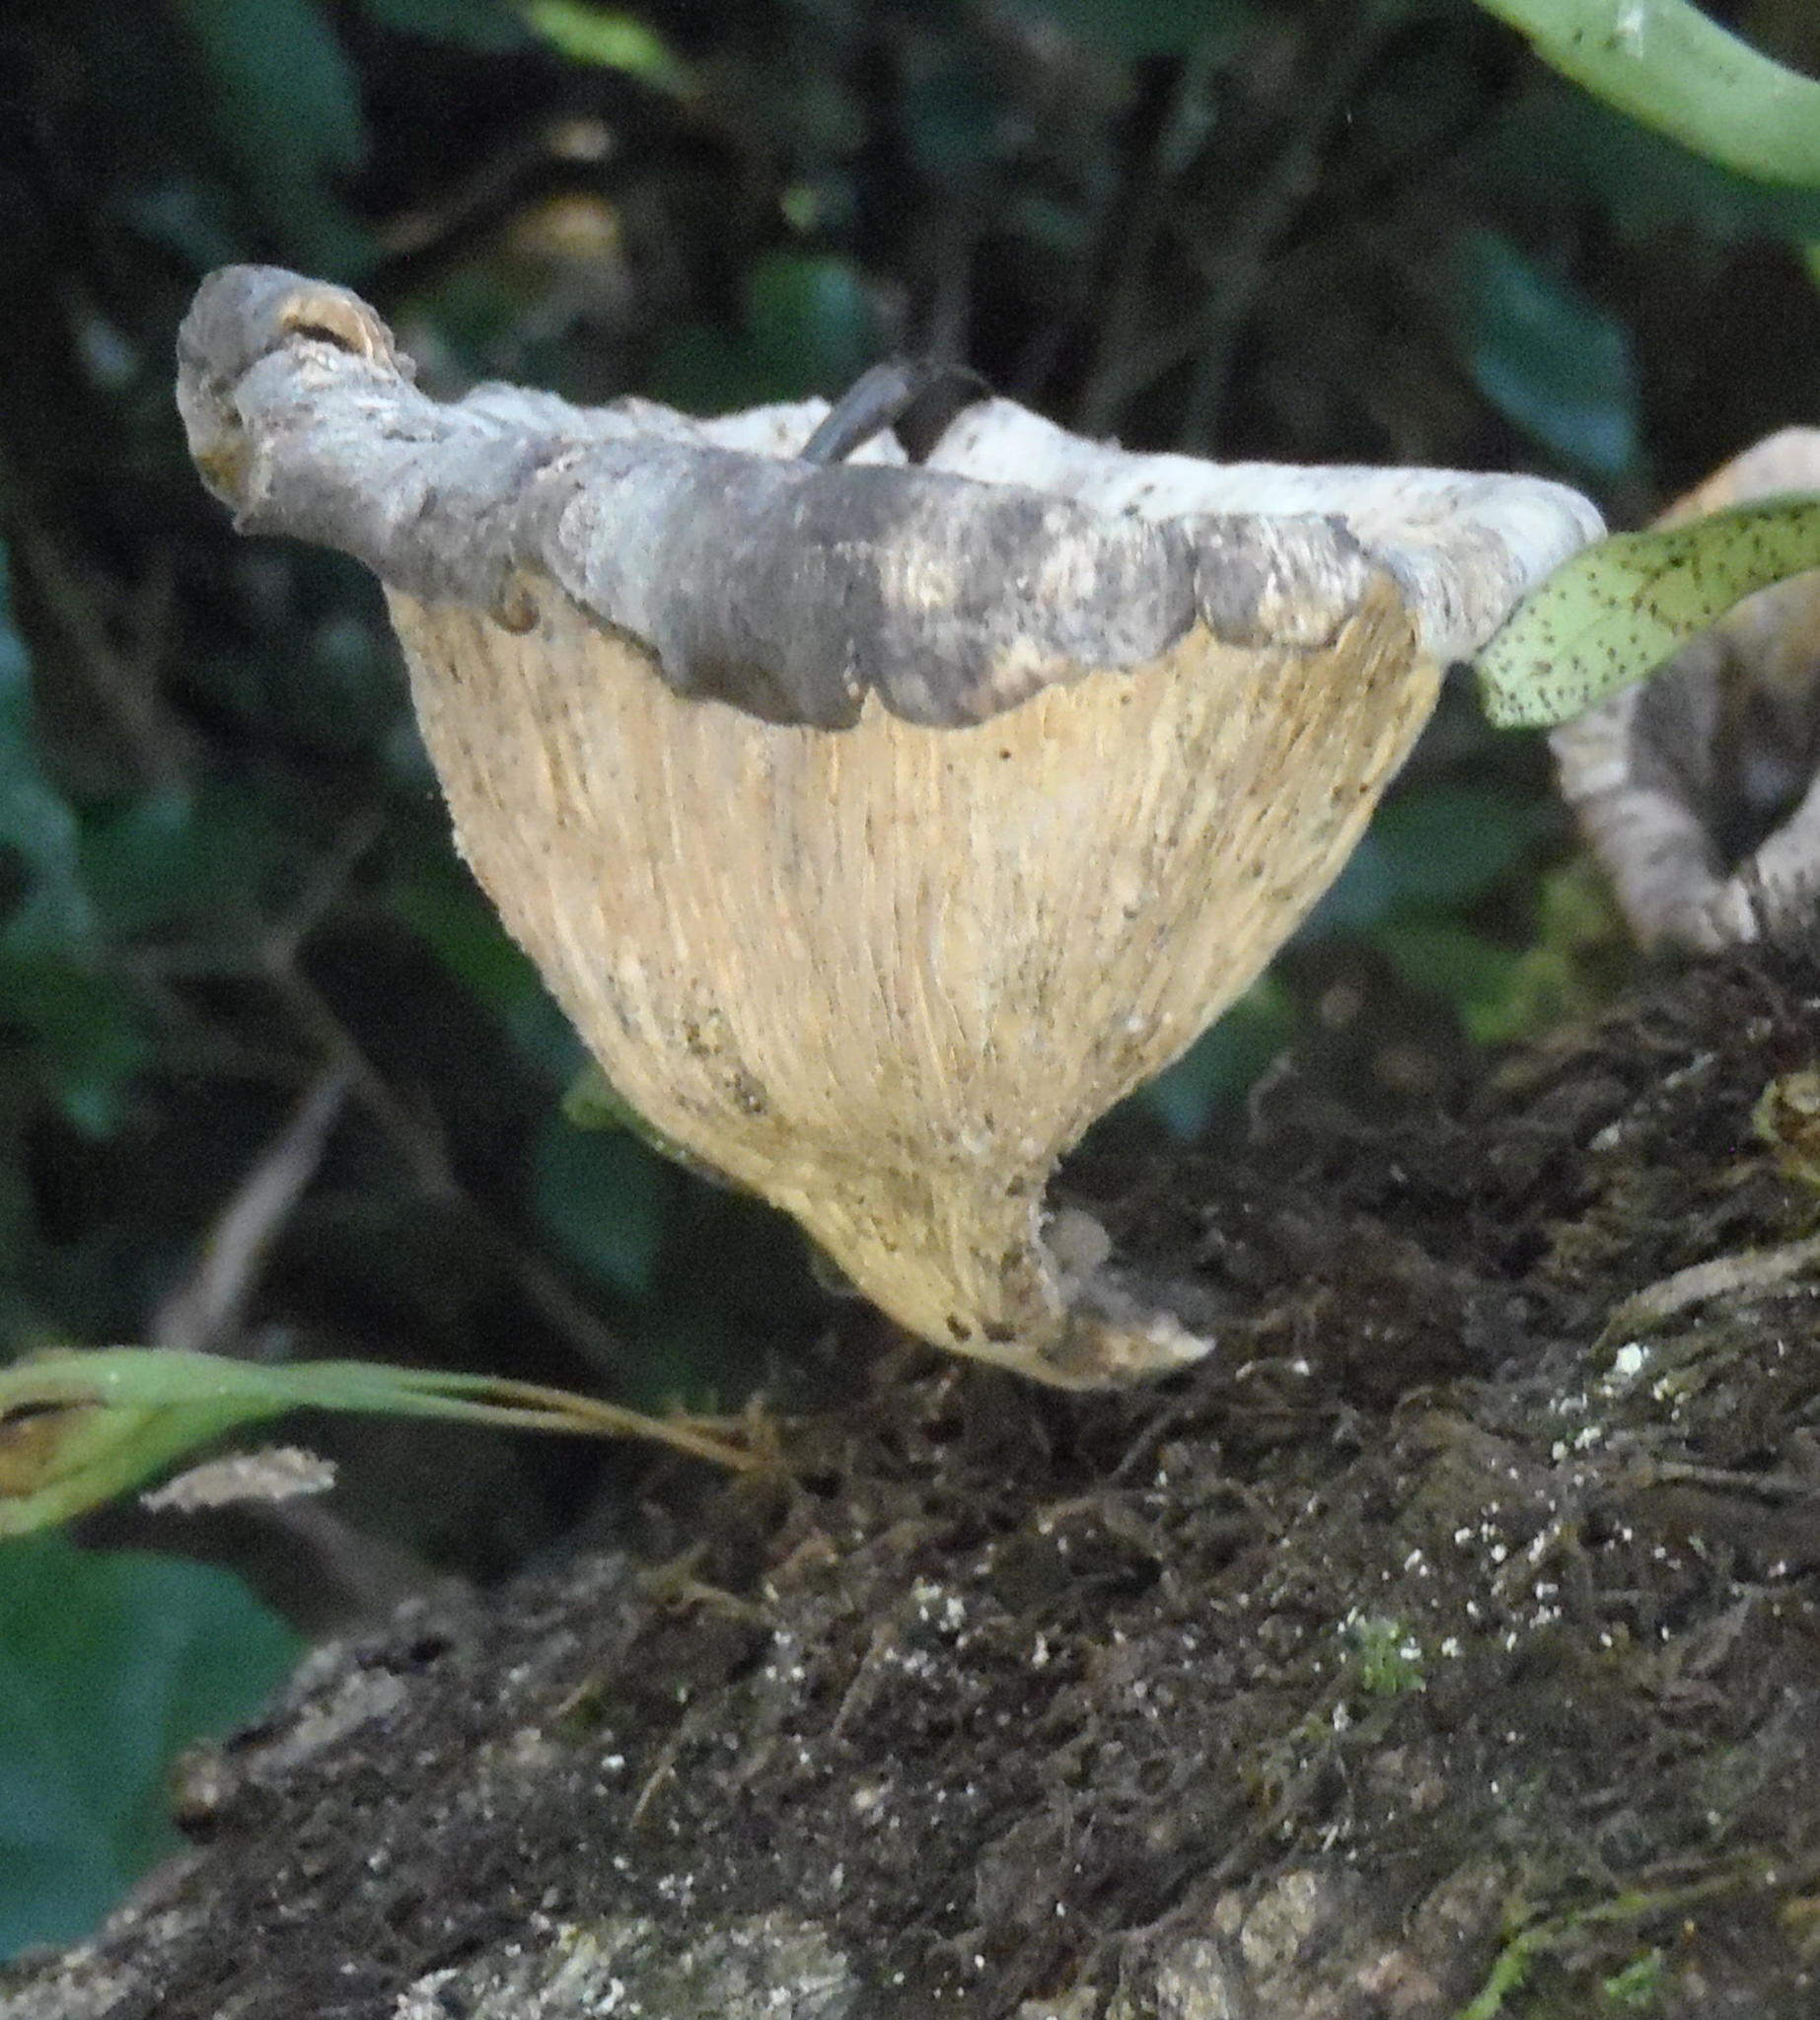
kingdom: Fungi
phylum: Basidiomycota
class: Agaricomycetes
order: Polyporales
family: Polyporaceae
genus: Lentinus
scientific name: Lentinus sajor-caju
